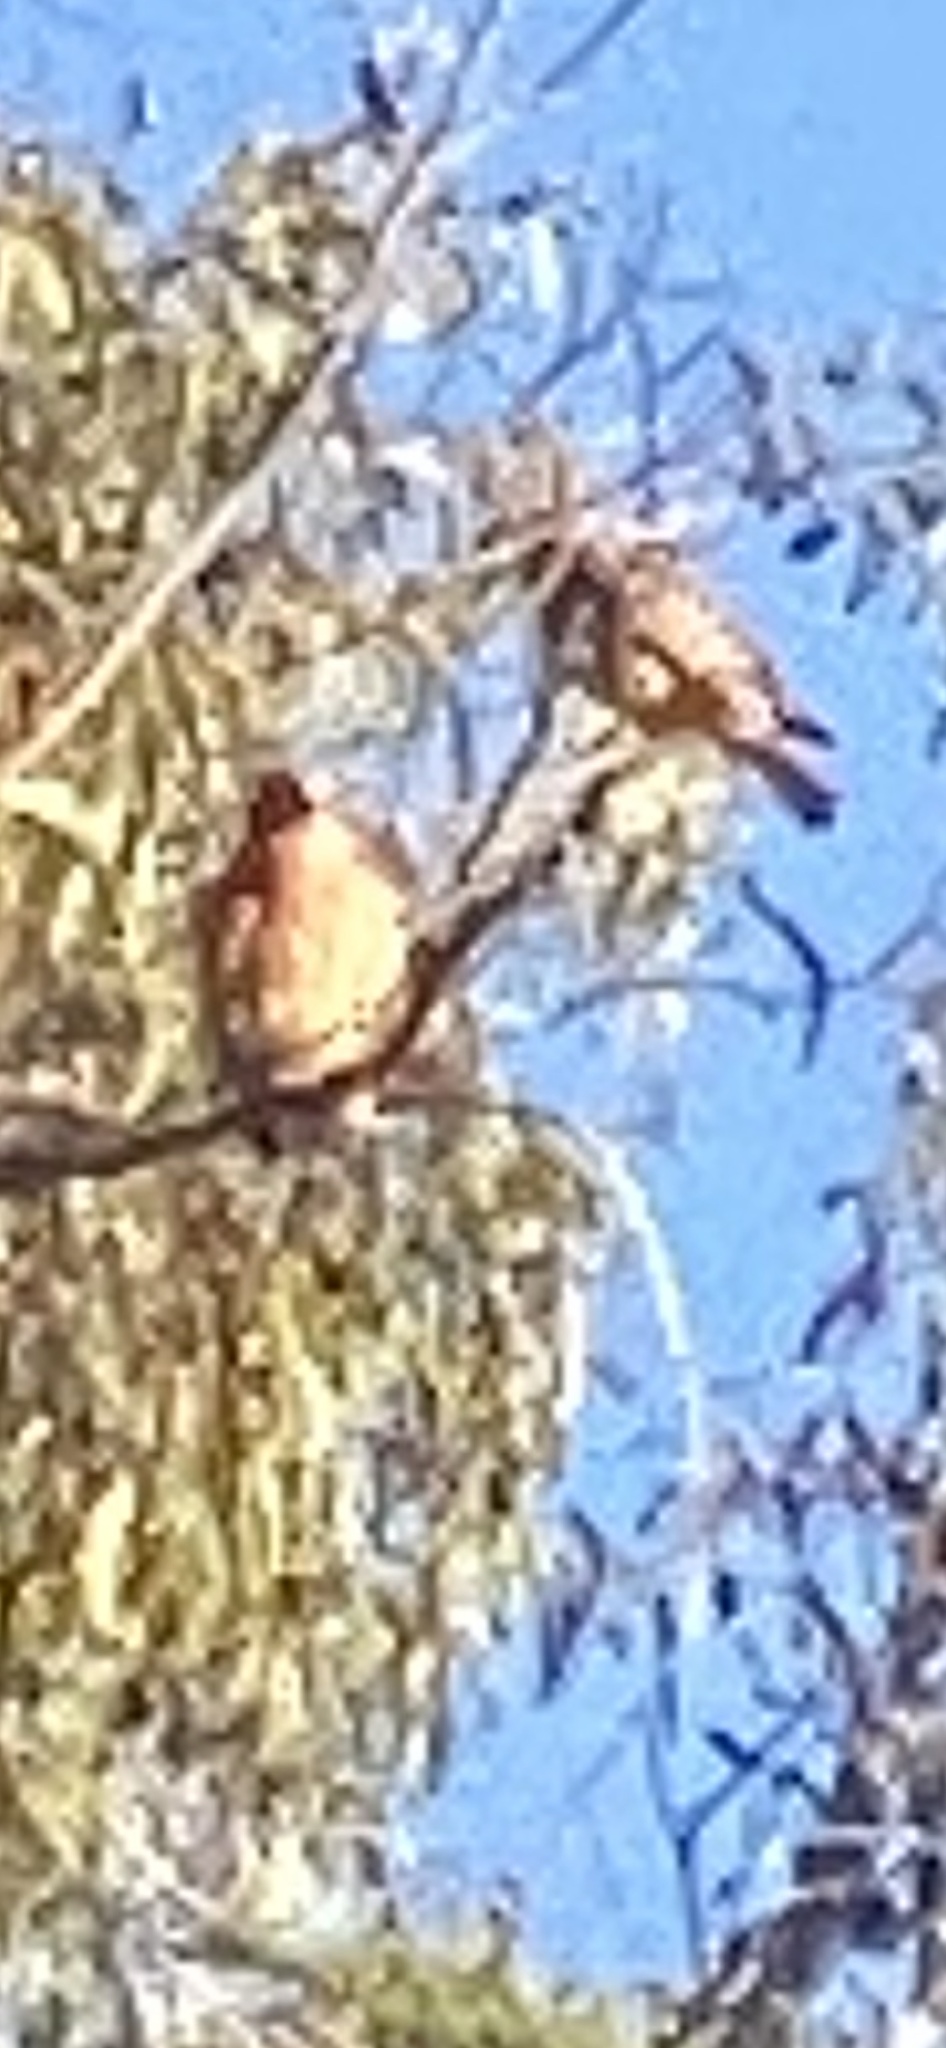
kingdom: Animalia
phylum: Chordata
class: Aves
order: Accipitriformes
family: Accipitridae
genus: Buteo
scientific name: Buteo lineatus
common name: Red-shouldered hawk
